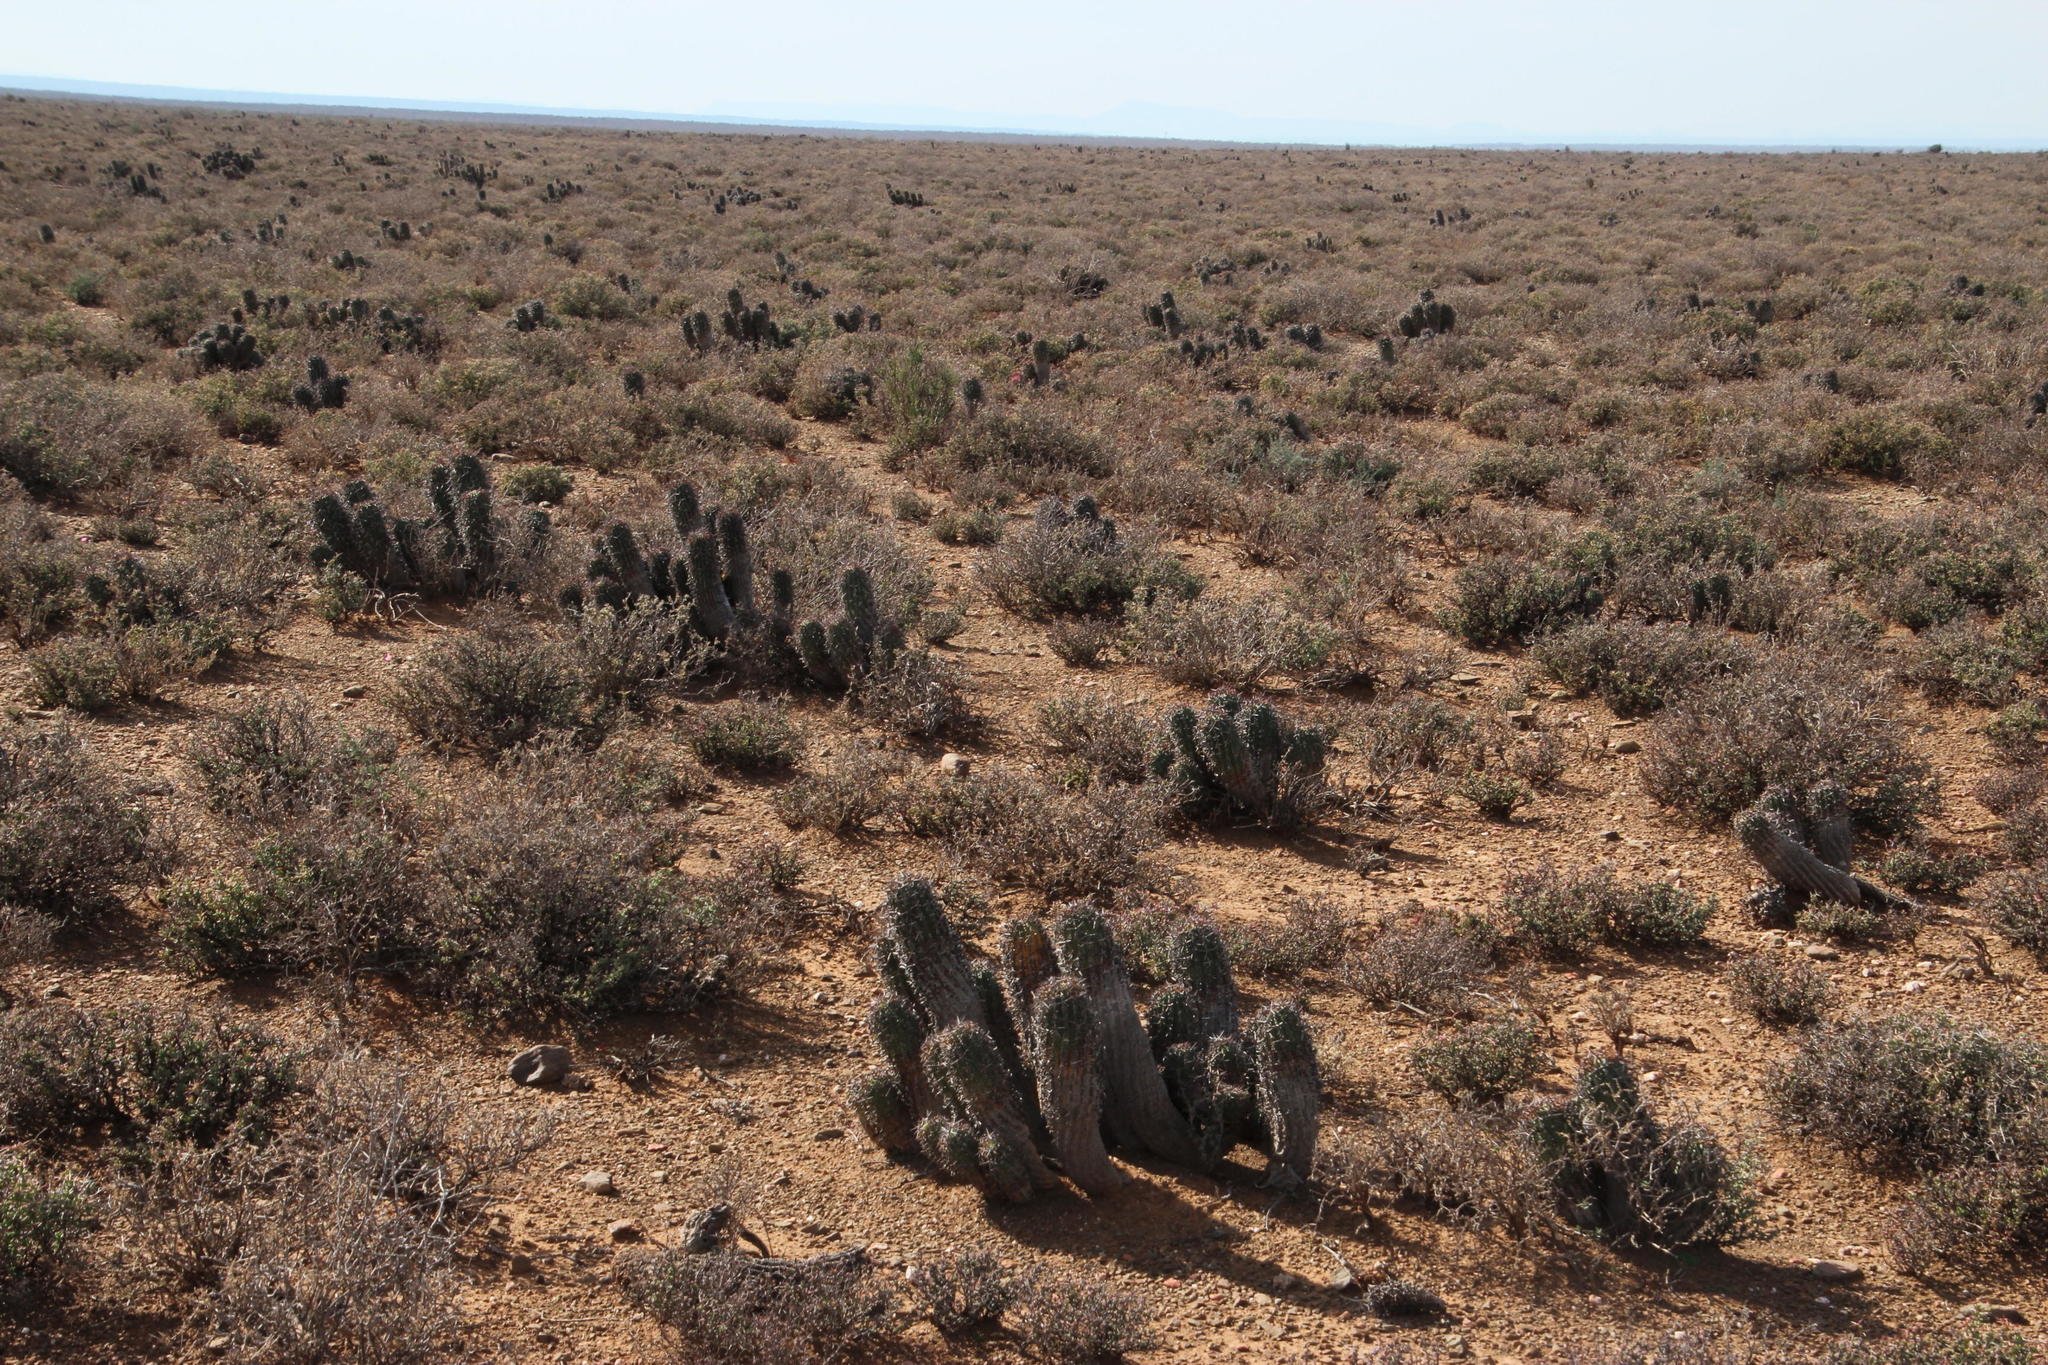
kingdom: Plantae
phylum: Tracheophyta
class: Magnoliopsida
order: Malpighiales
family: Euphorbiaceae
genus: Euphorbia
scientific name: Euphorbia stellispina
